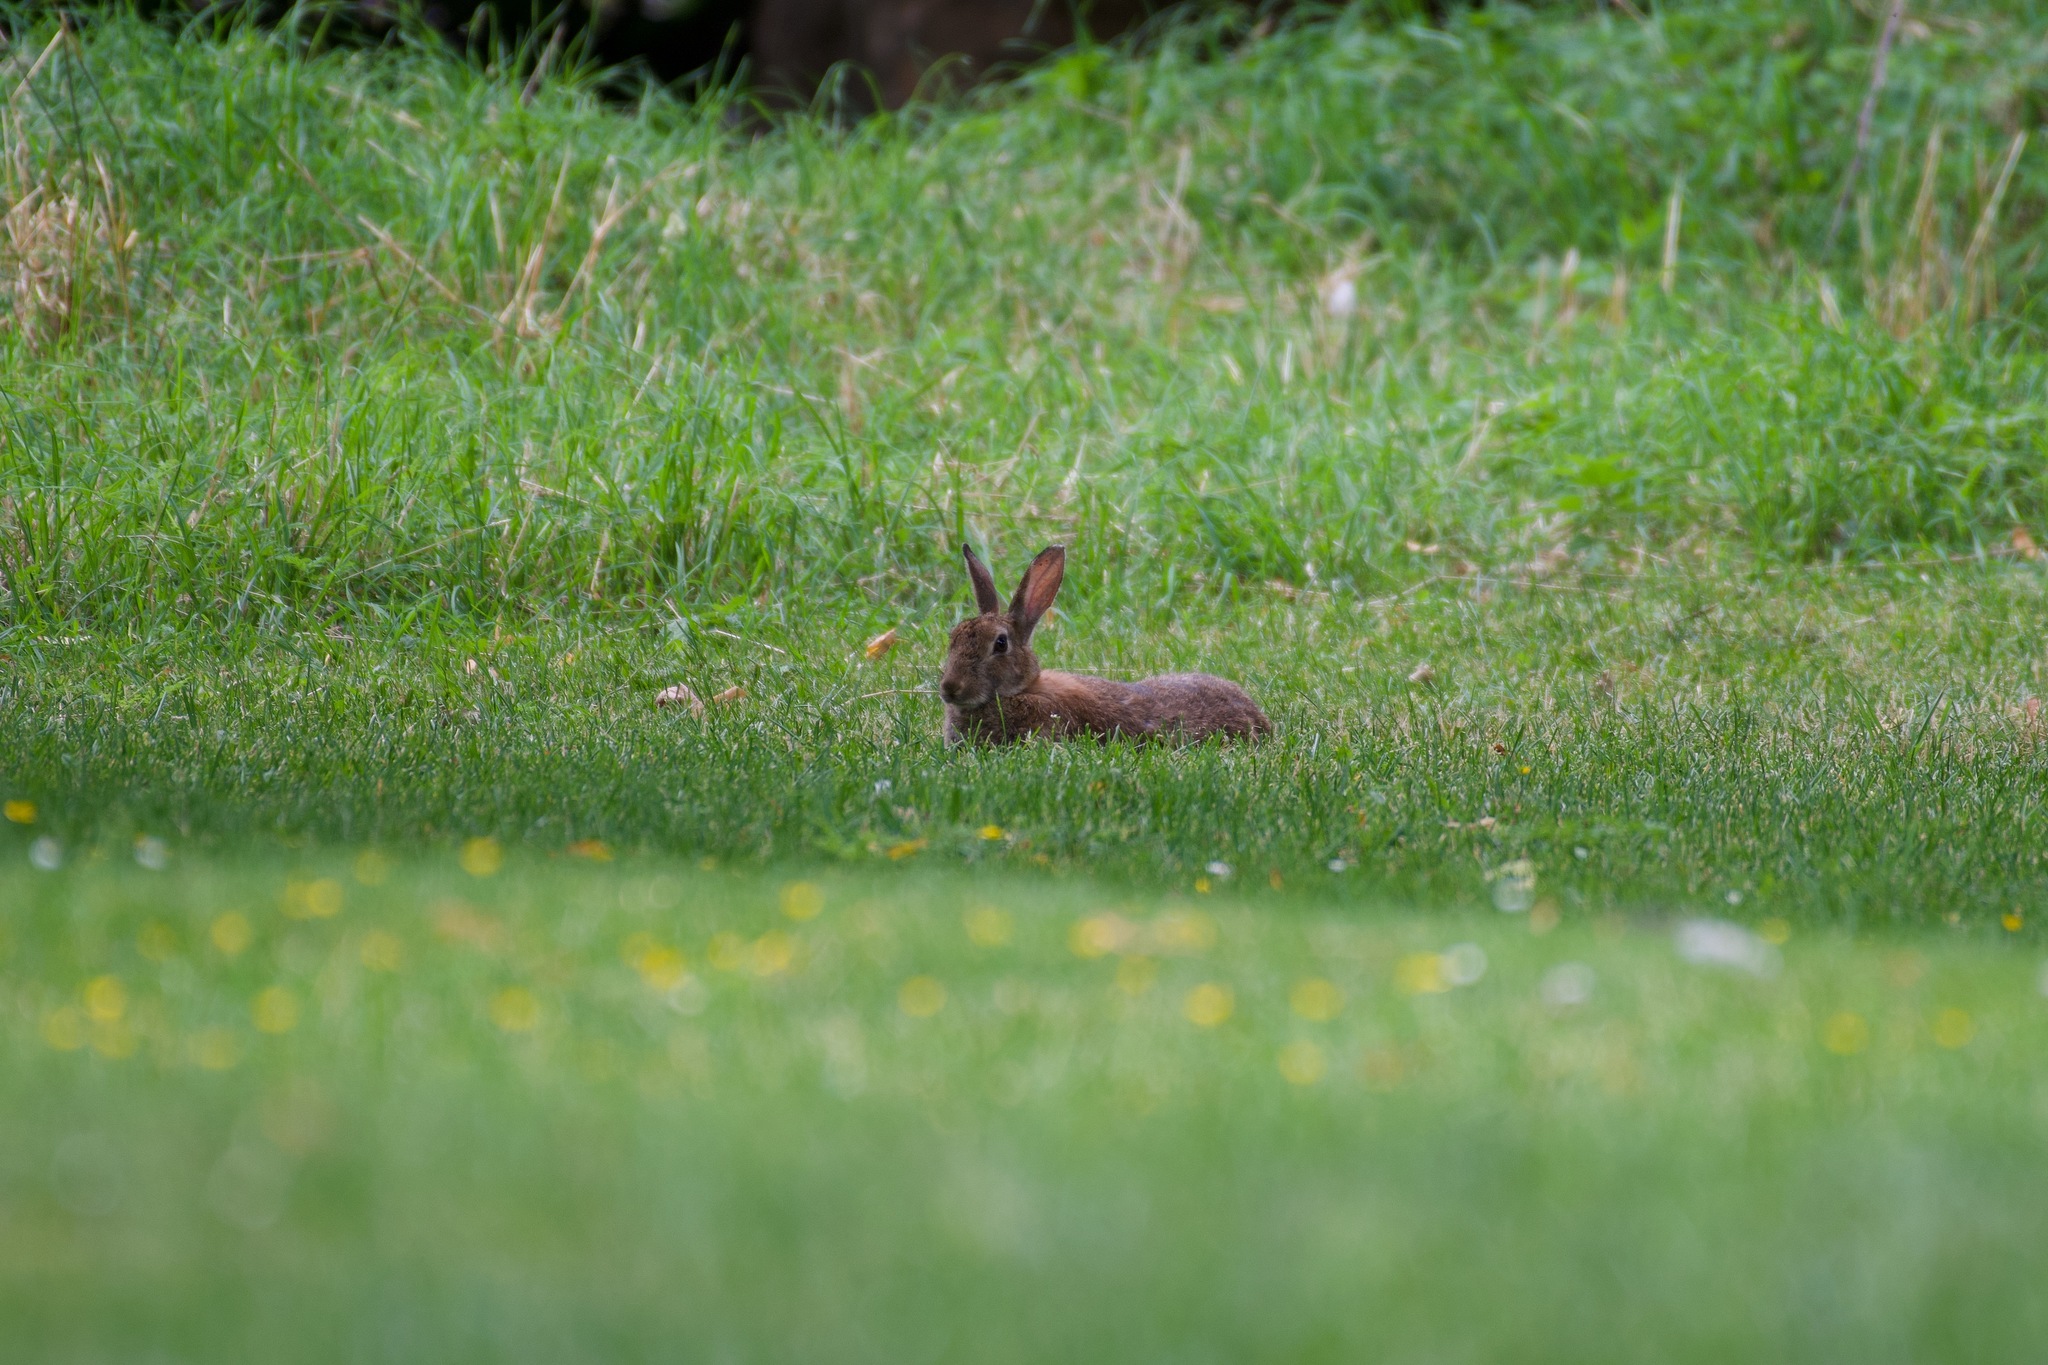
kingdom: Animalia
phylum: Chordata
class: Mammalia
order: Lagomorpha
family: Leporidae
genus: Oryctolagus
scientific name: Oryctolagus cuniculus
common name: European rabbit
